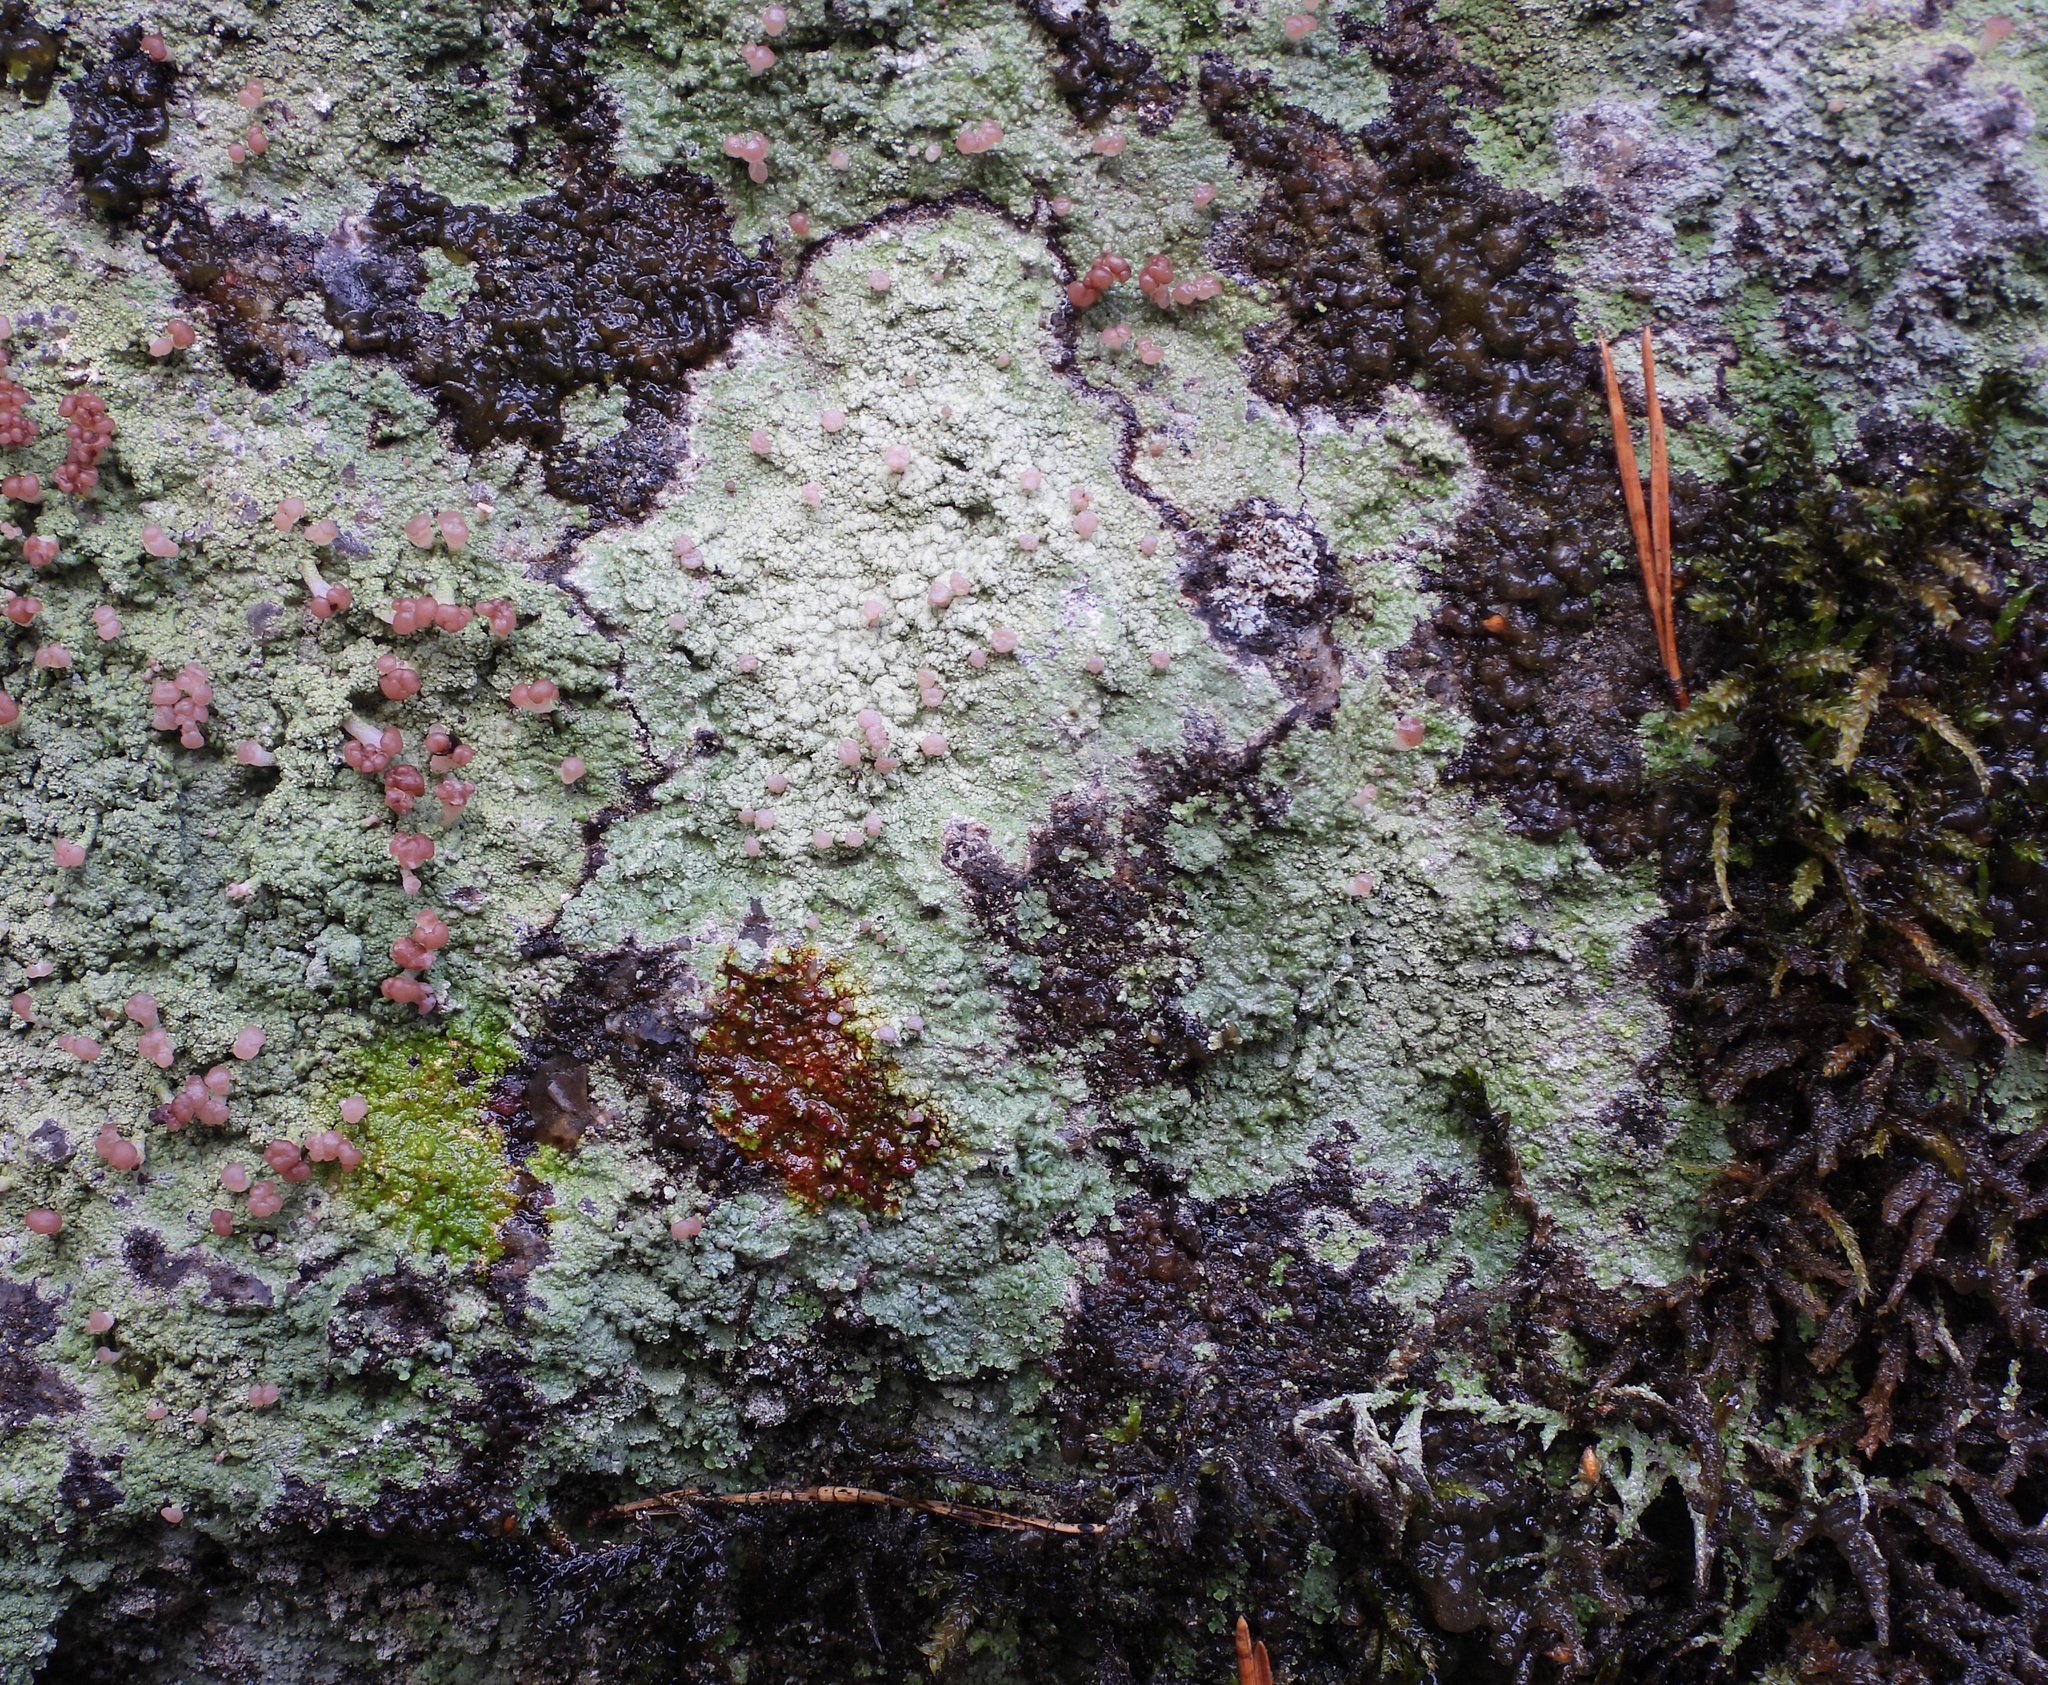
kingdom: Fungi
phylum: Ascomycota
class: Lecanoromycetes
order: Baeomycetales
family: Baeomycetaceae
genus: Baeomyces
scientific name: Baeomyces carneus
